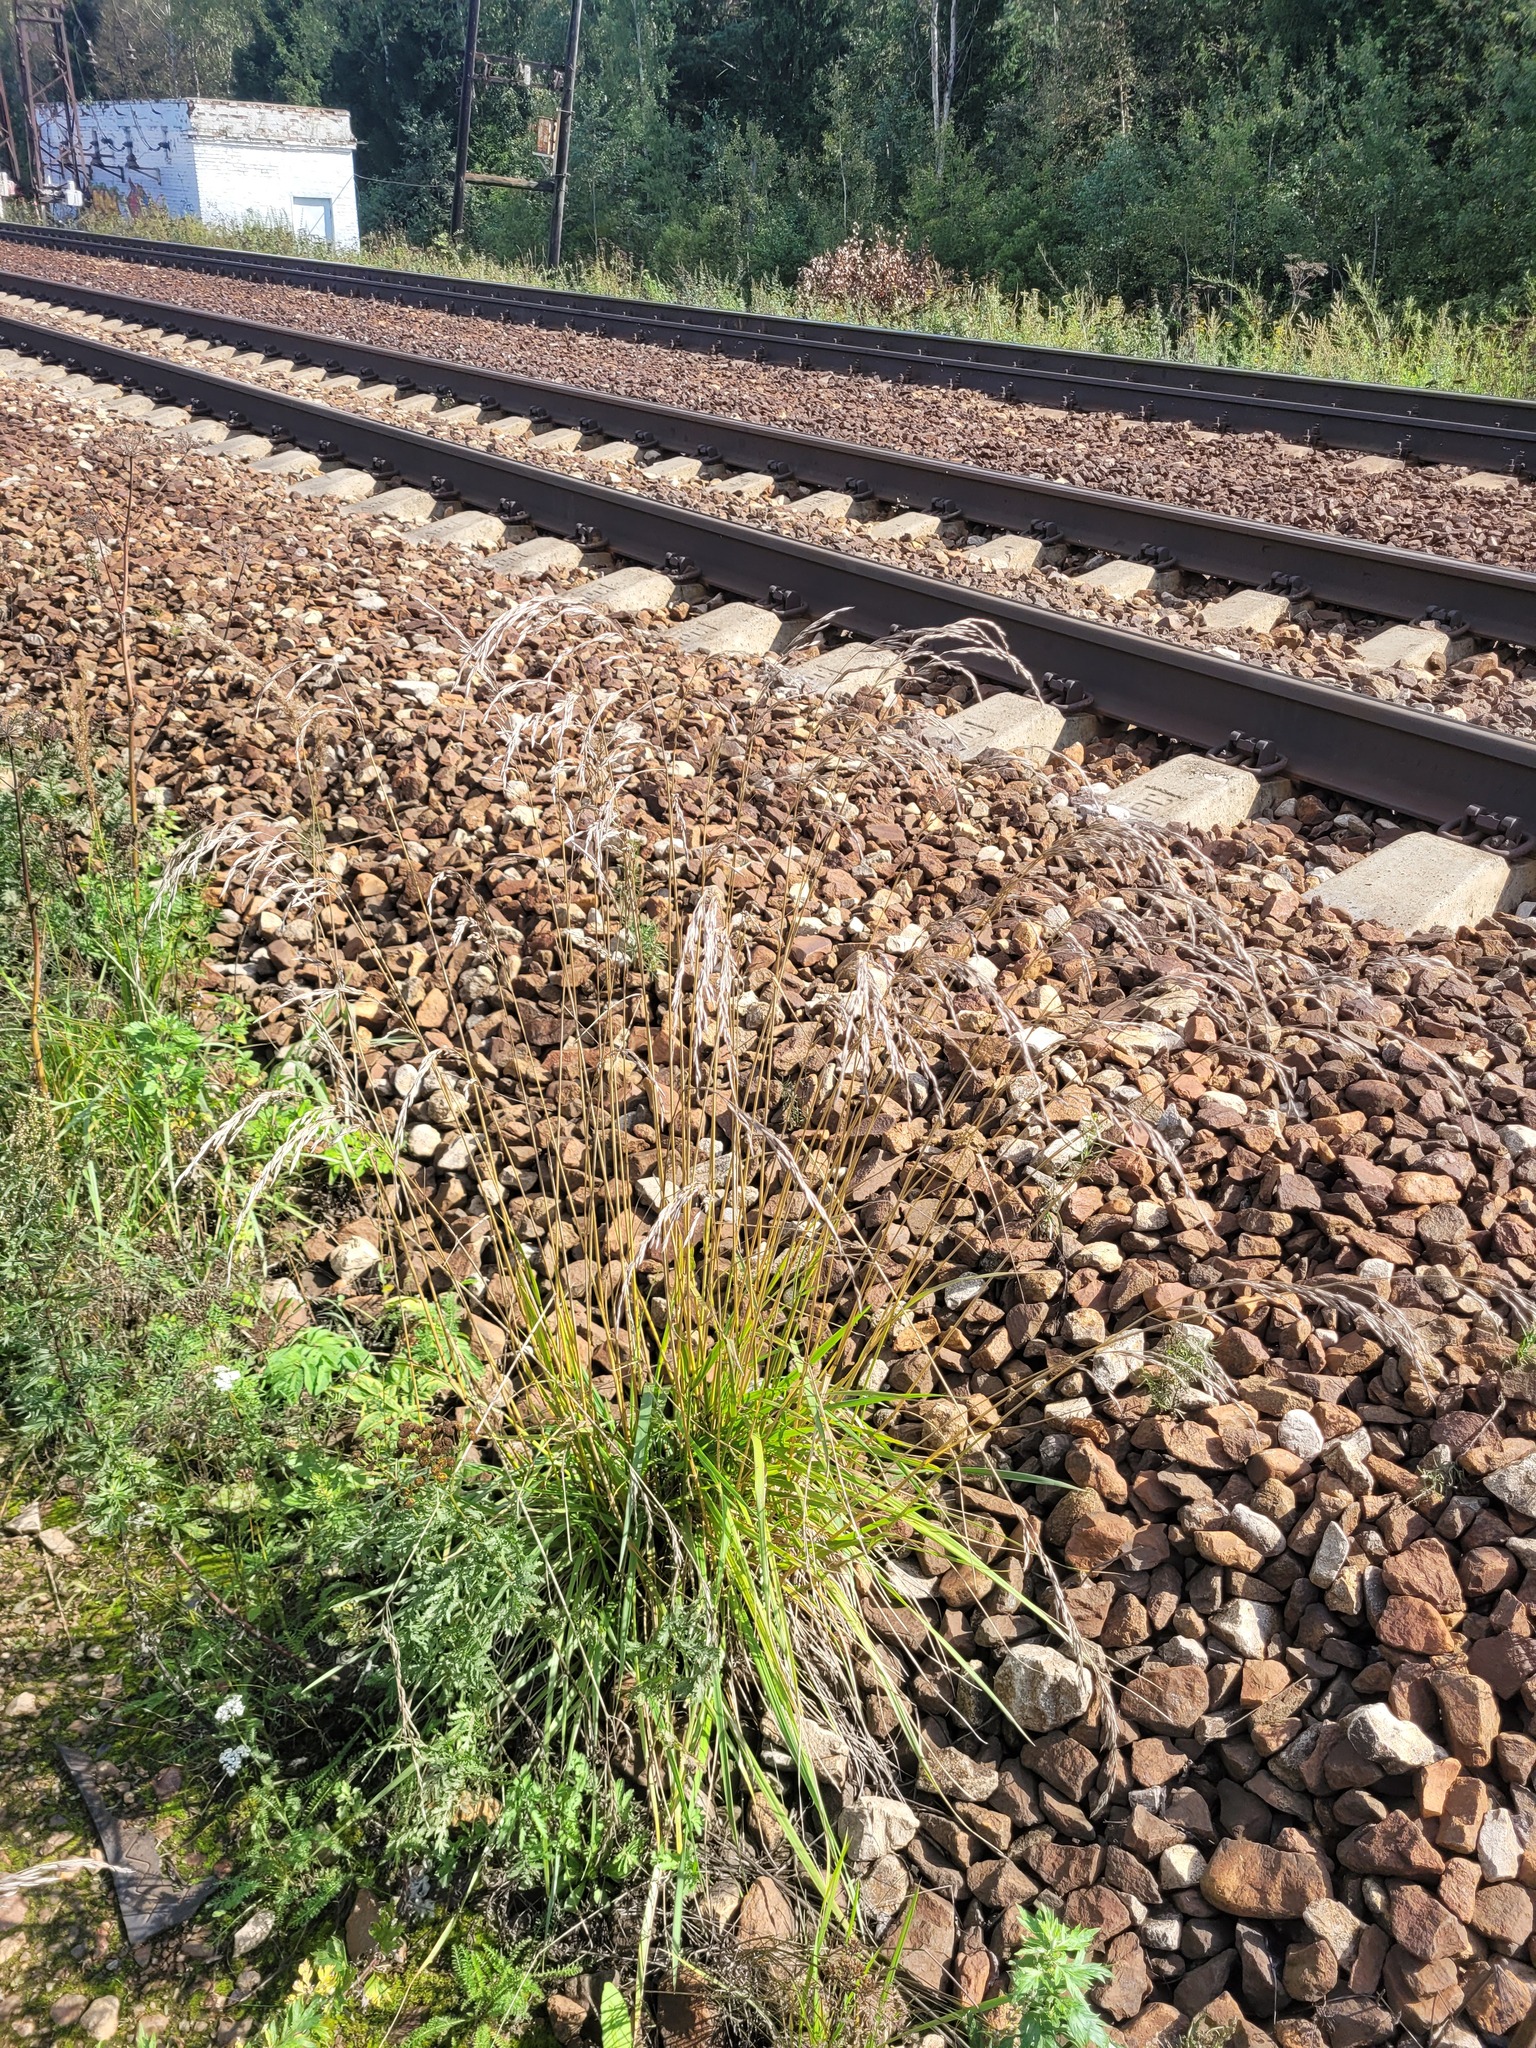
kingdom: Plantae
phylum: Tracheophyta
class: Liliopsida
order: Poales
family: Poaceae
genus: Lolium
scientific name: Lolium arundinaceum
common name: Reed fescue
